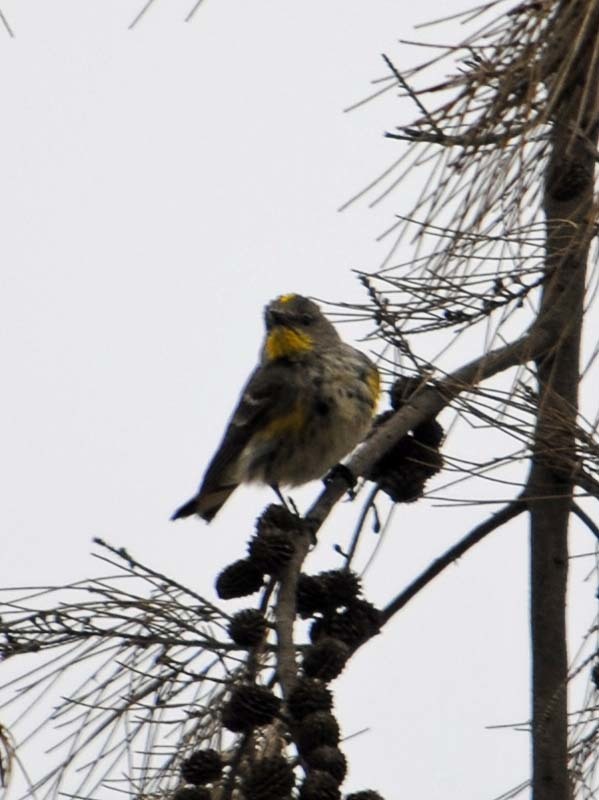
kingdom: Animalia
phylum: Chordata
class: Aves
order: Passeriformes
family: Parulidae
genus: Setophaga
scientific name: Setophaga auduboni
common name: Audubon's warbler
